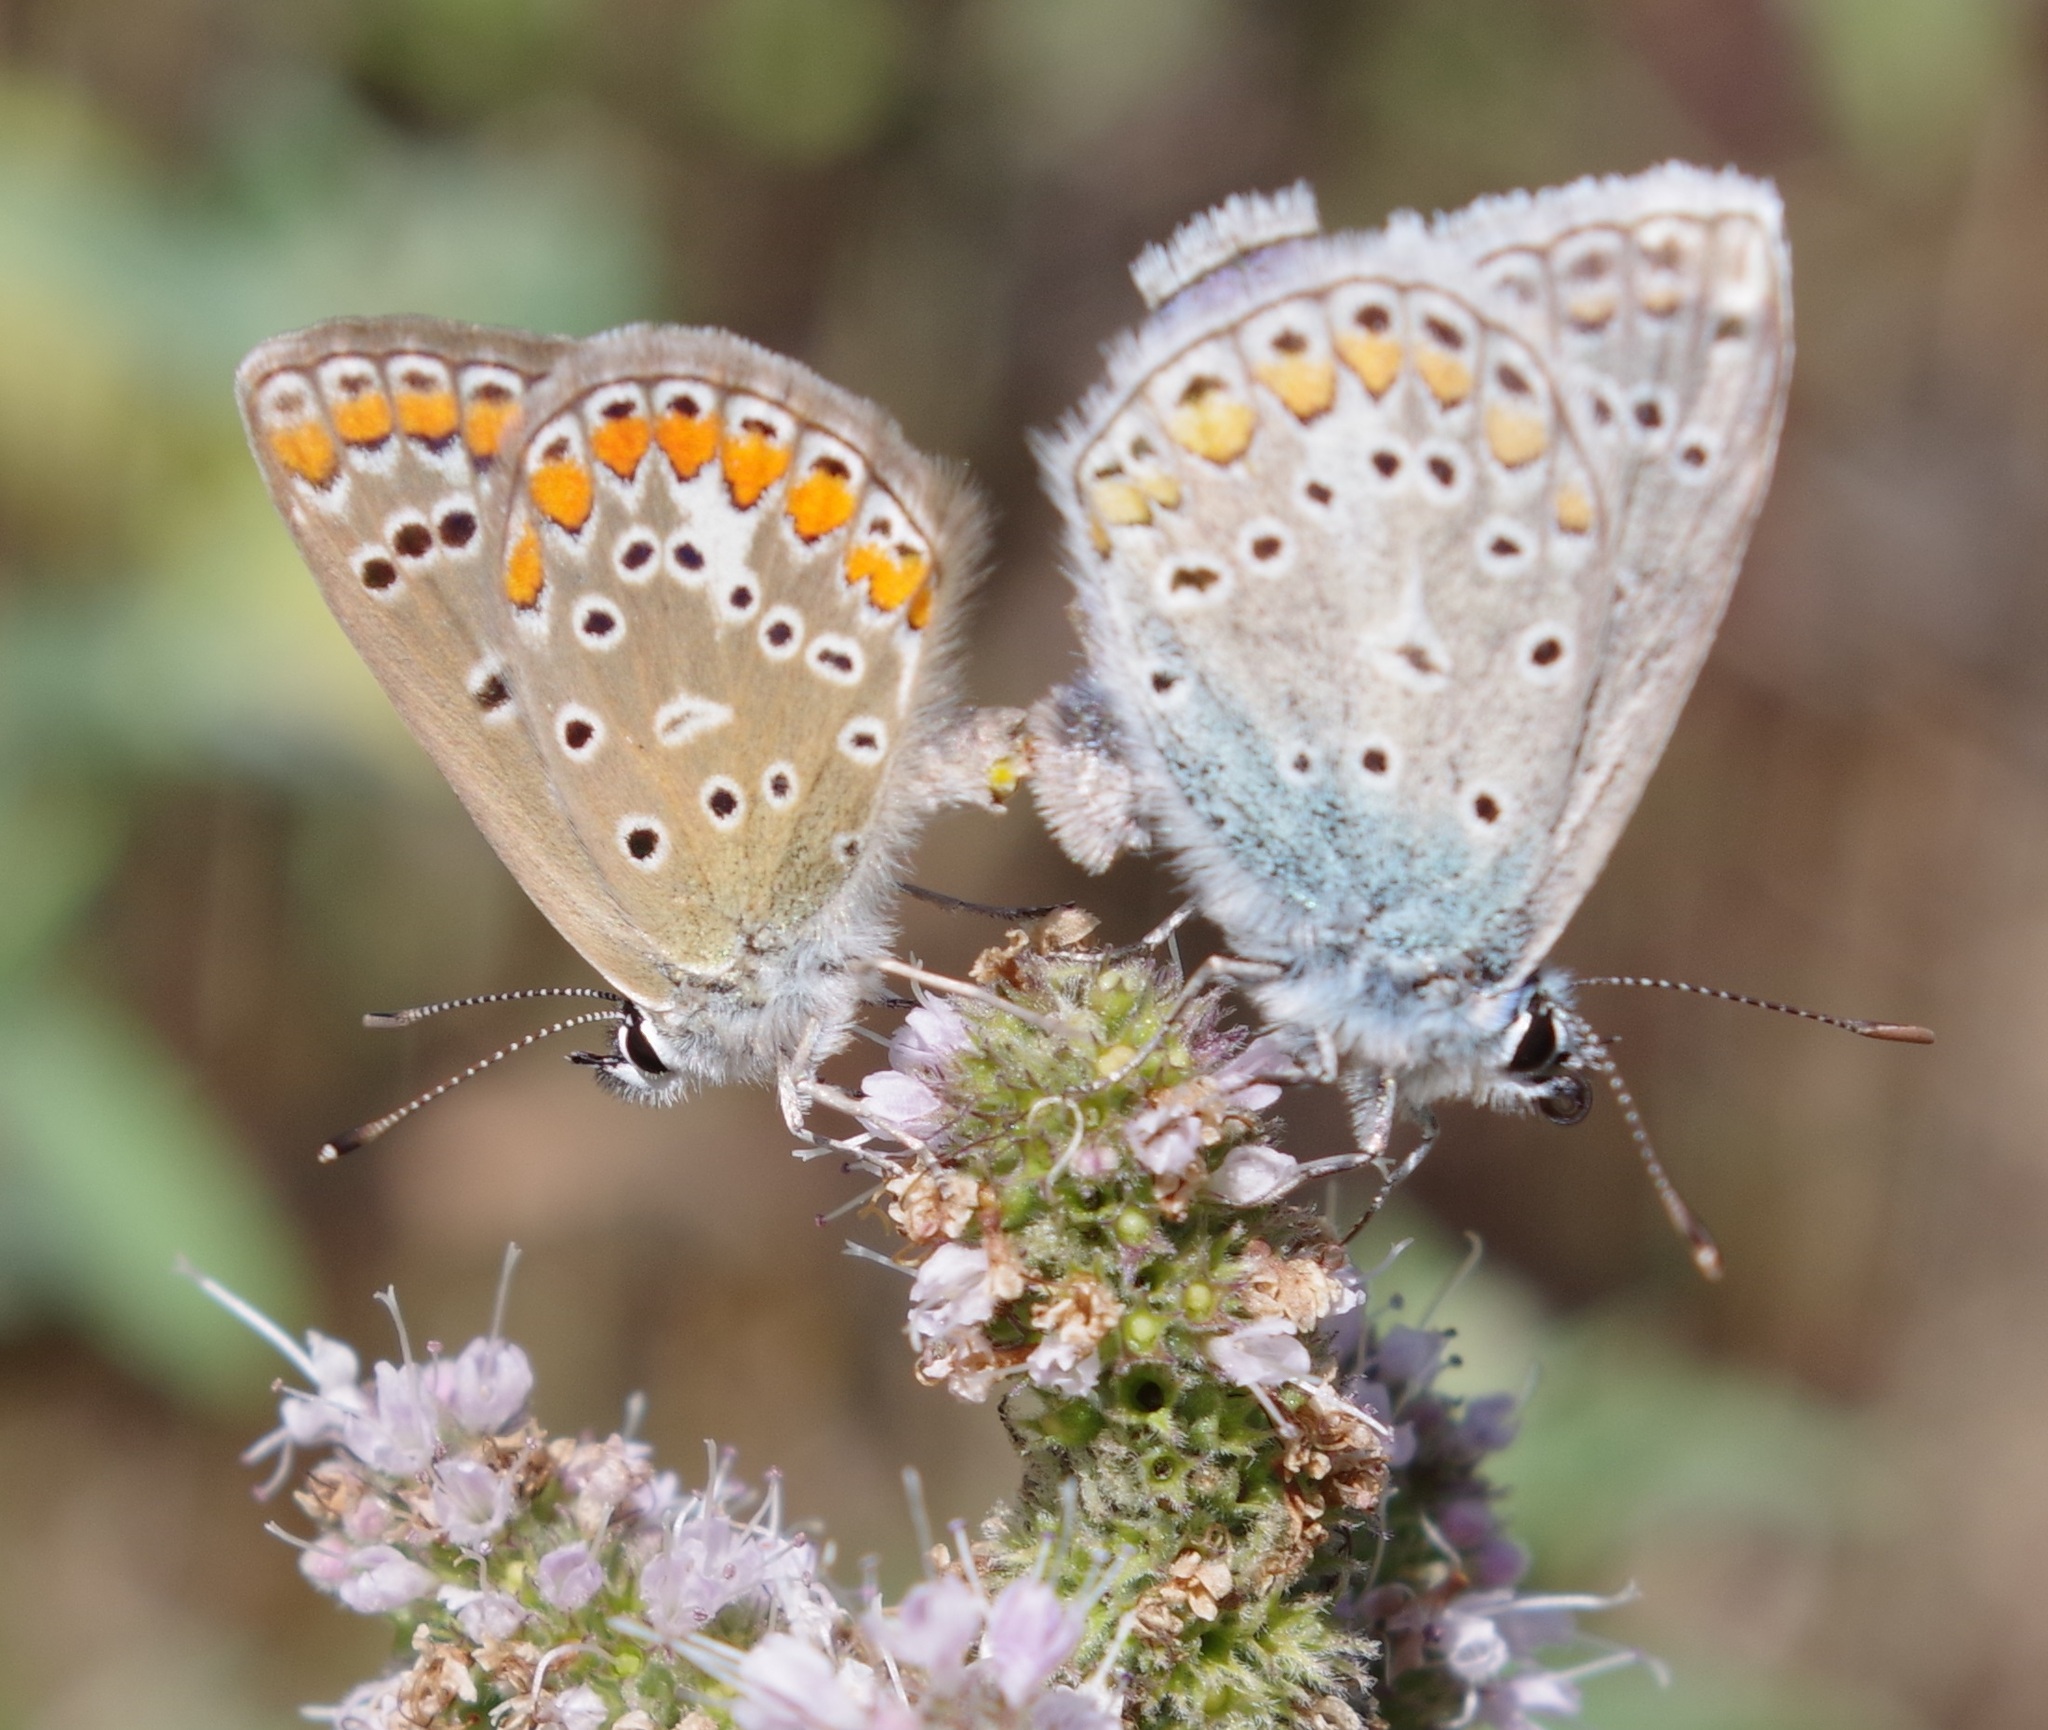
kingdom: Animalia
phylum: Arthropoda
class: Insecta
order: Lepidoptera
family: Lycaenidae
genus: Polyommatus
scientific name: Polyommatus icarus
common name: Common blue
